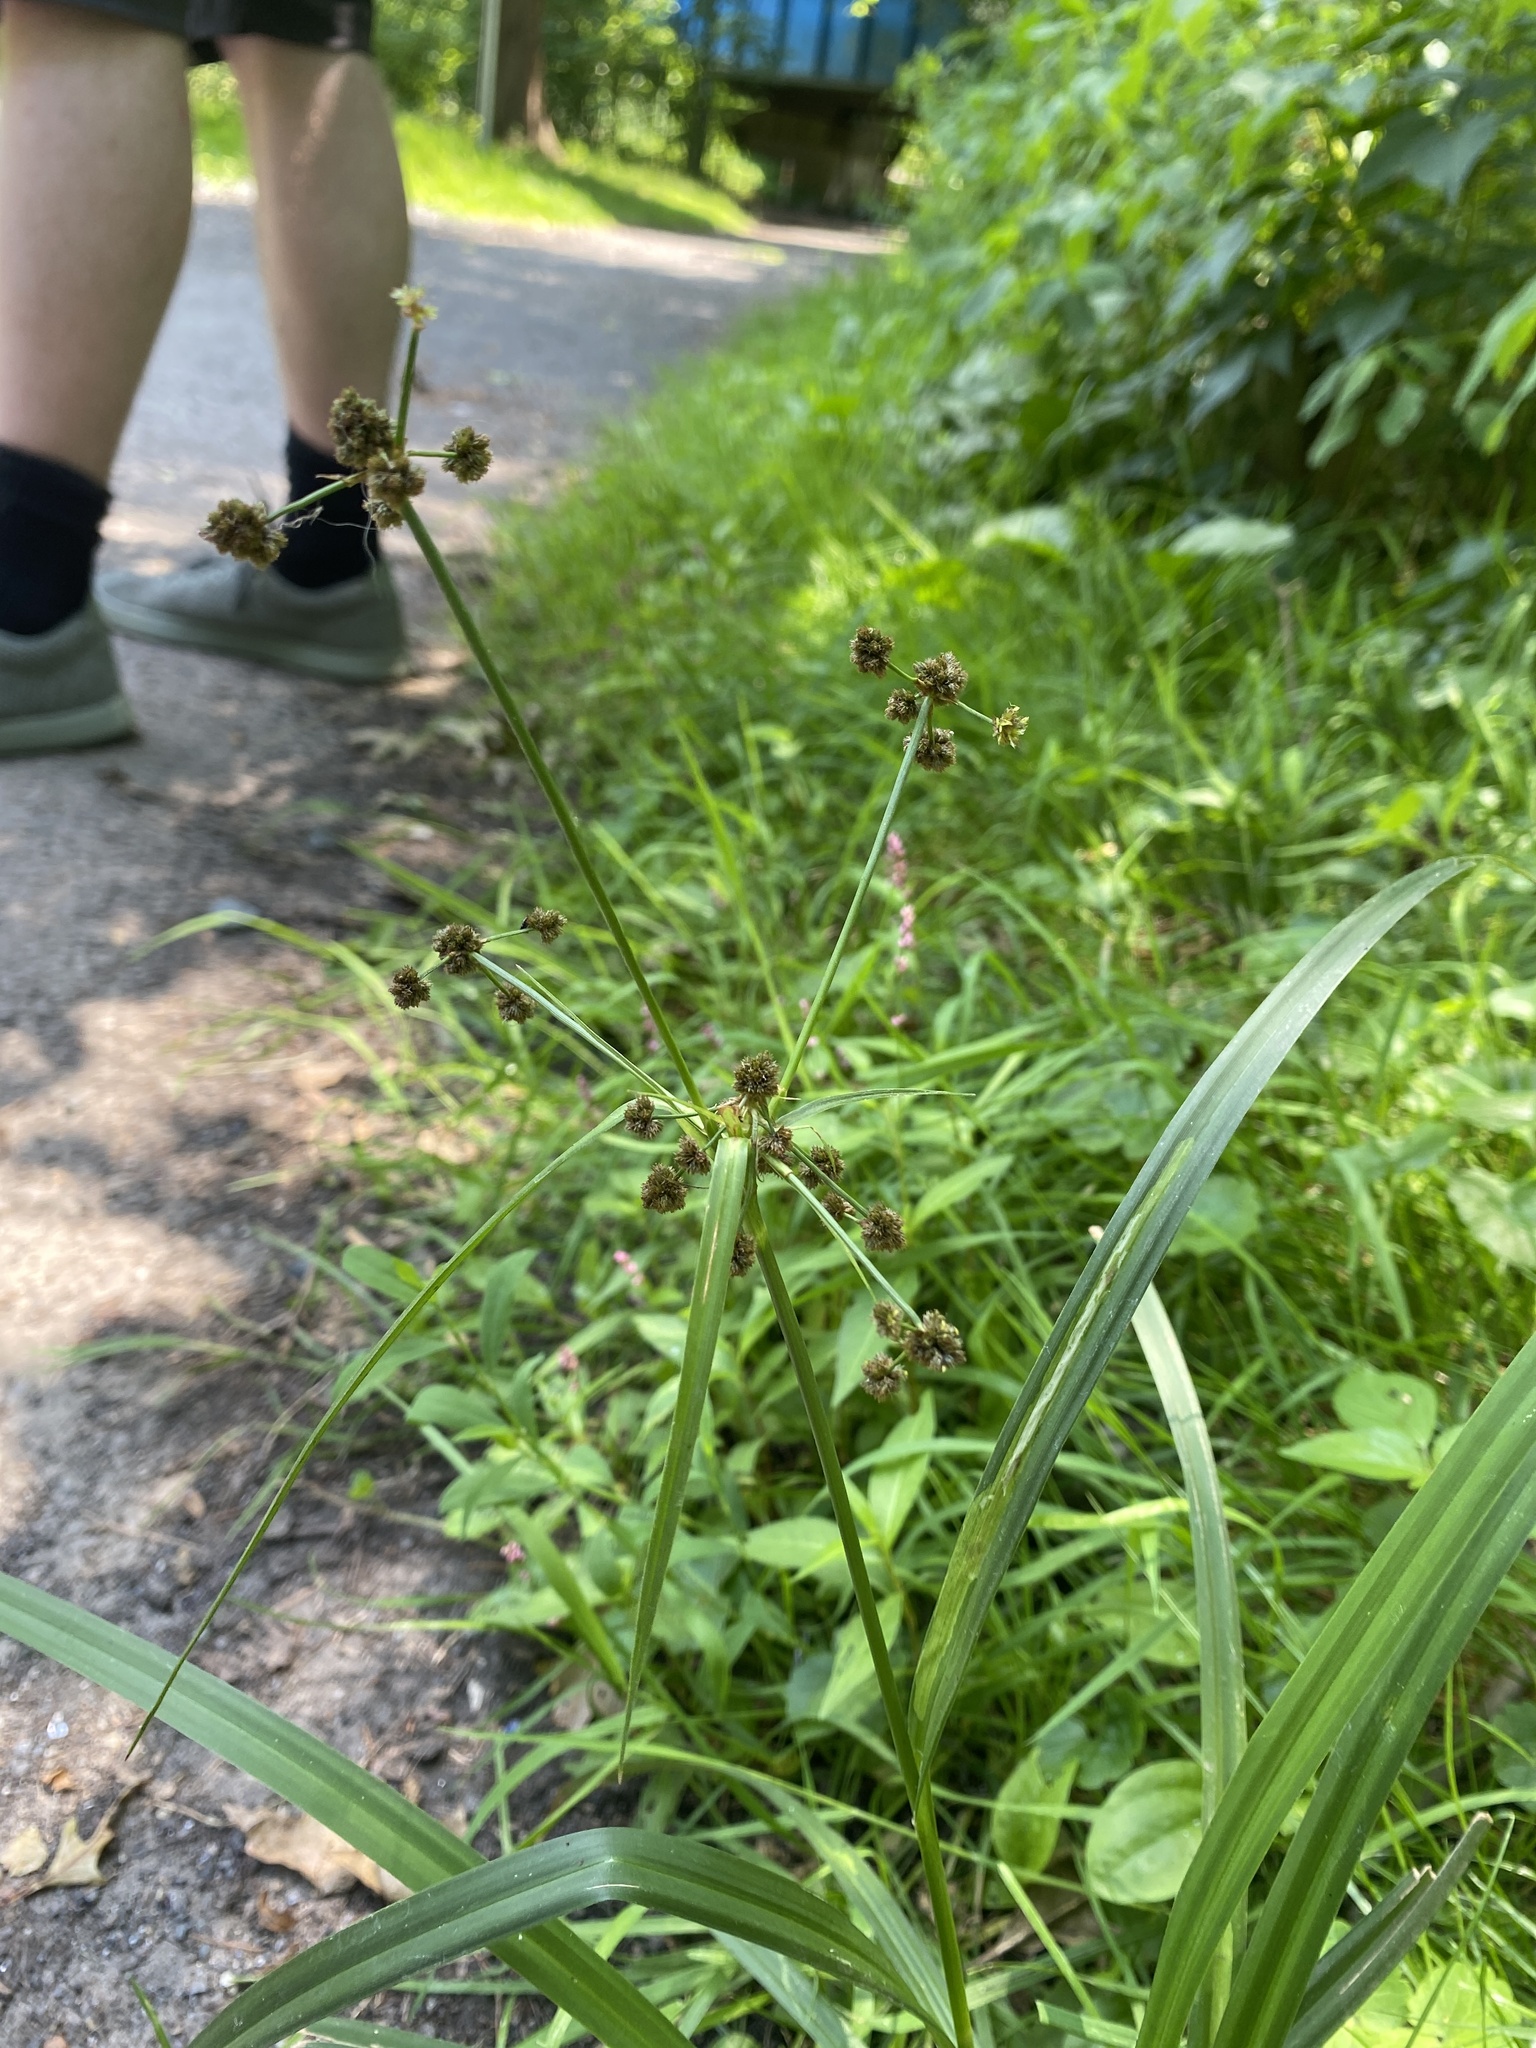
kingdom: Plantae
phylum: Tracheophyta
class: Liliopsida
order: Poales
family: Cyperaceae
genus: Scirpus
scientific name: Scirpus polyphyllus
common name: Leafy bulrush
